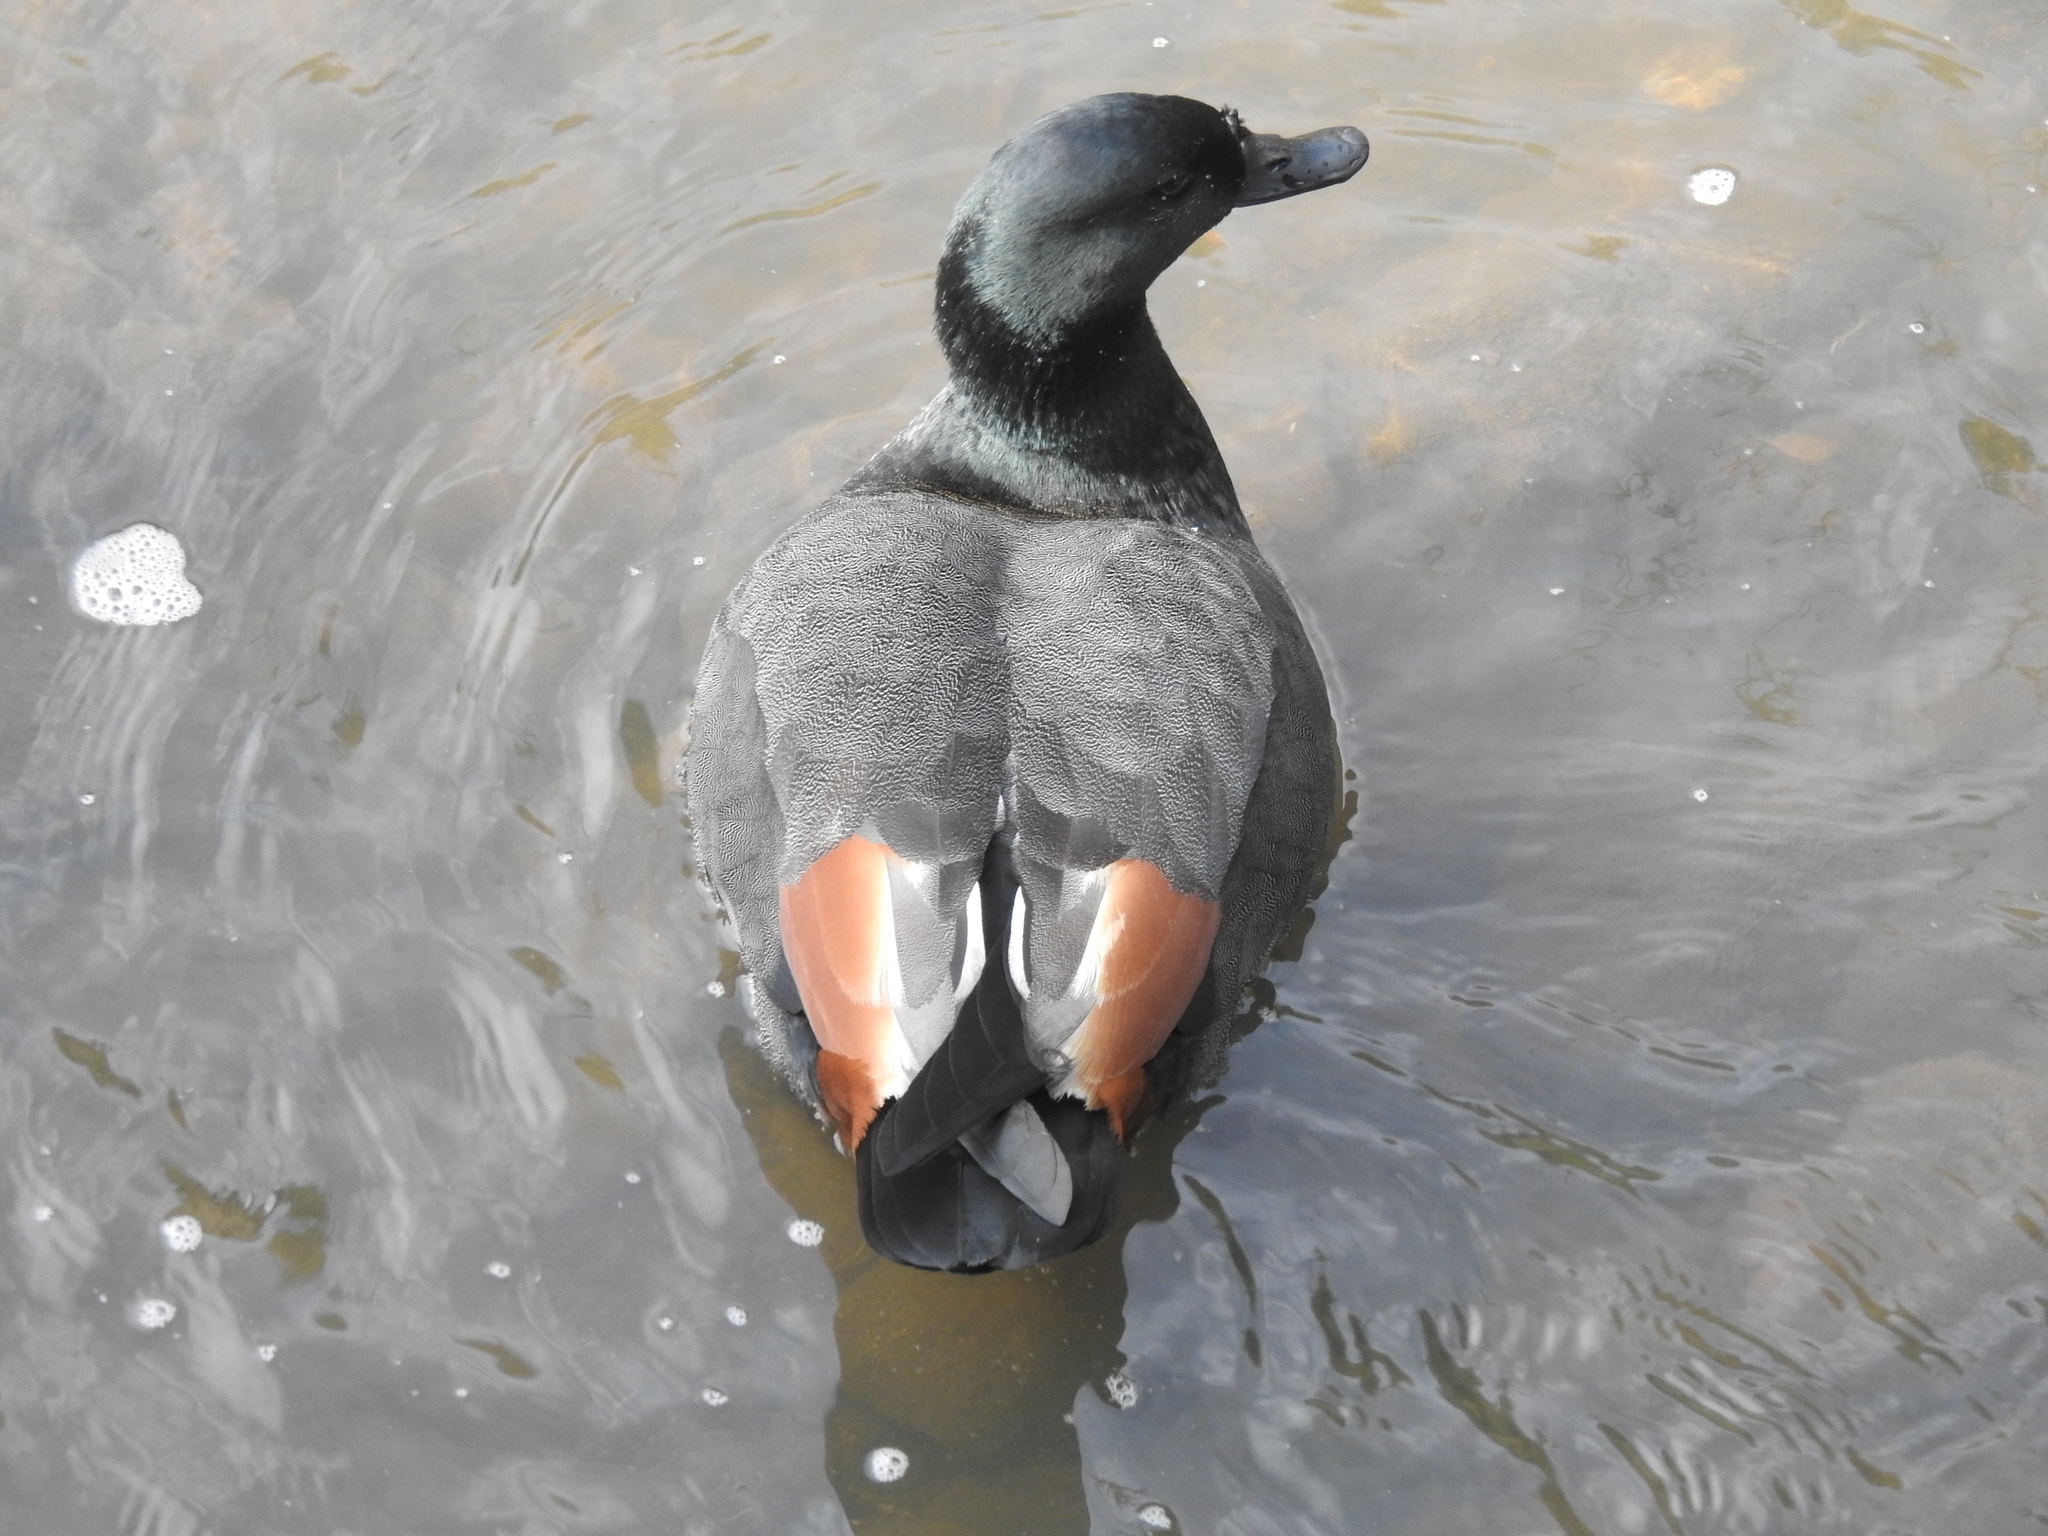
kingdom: Animalia
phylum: Chordata
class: Aves
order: Anseriformes
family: Anatidae
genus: Tadorna
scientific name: Tadorna variegata
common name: Paradise shelduck
